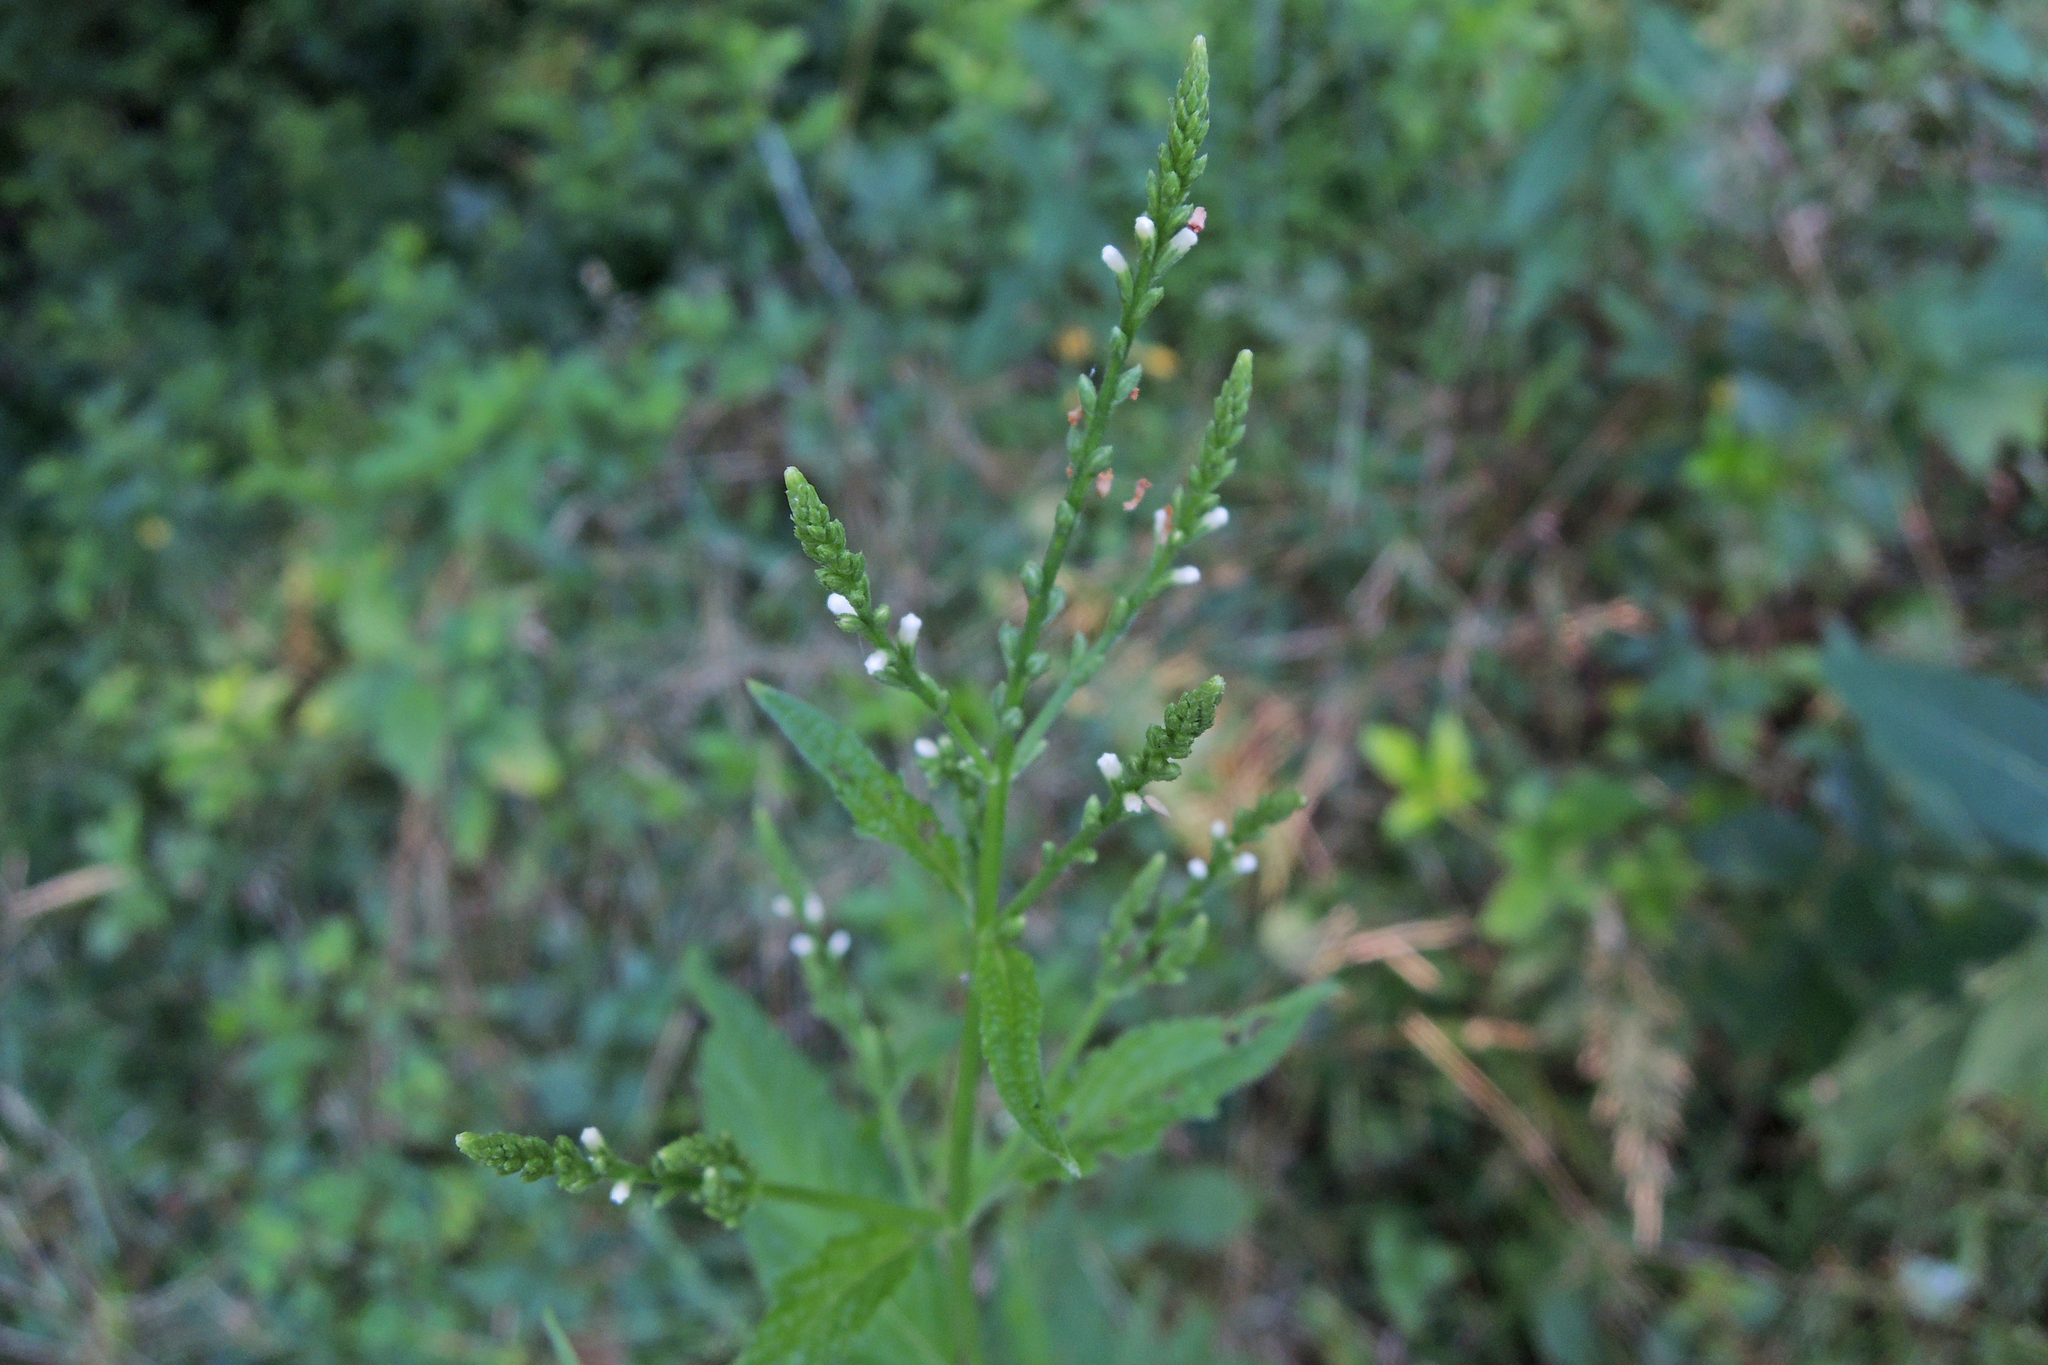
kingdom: Plantae
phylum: Tracheophyta
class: Magnoliopsida
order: Lamiales
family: Verbenaceae
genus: Verbena
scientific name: Verbena urticifolia
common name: Nettle-leaved vervain
